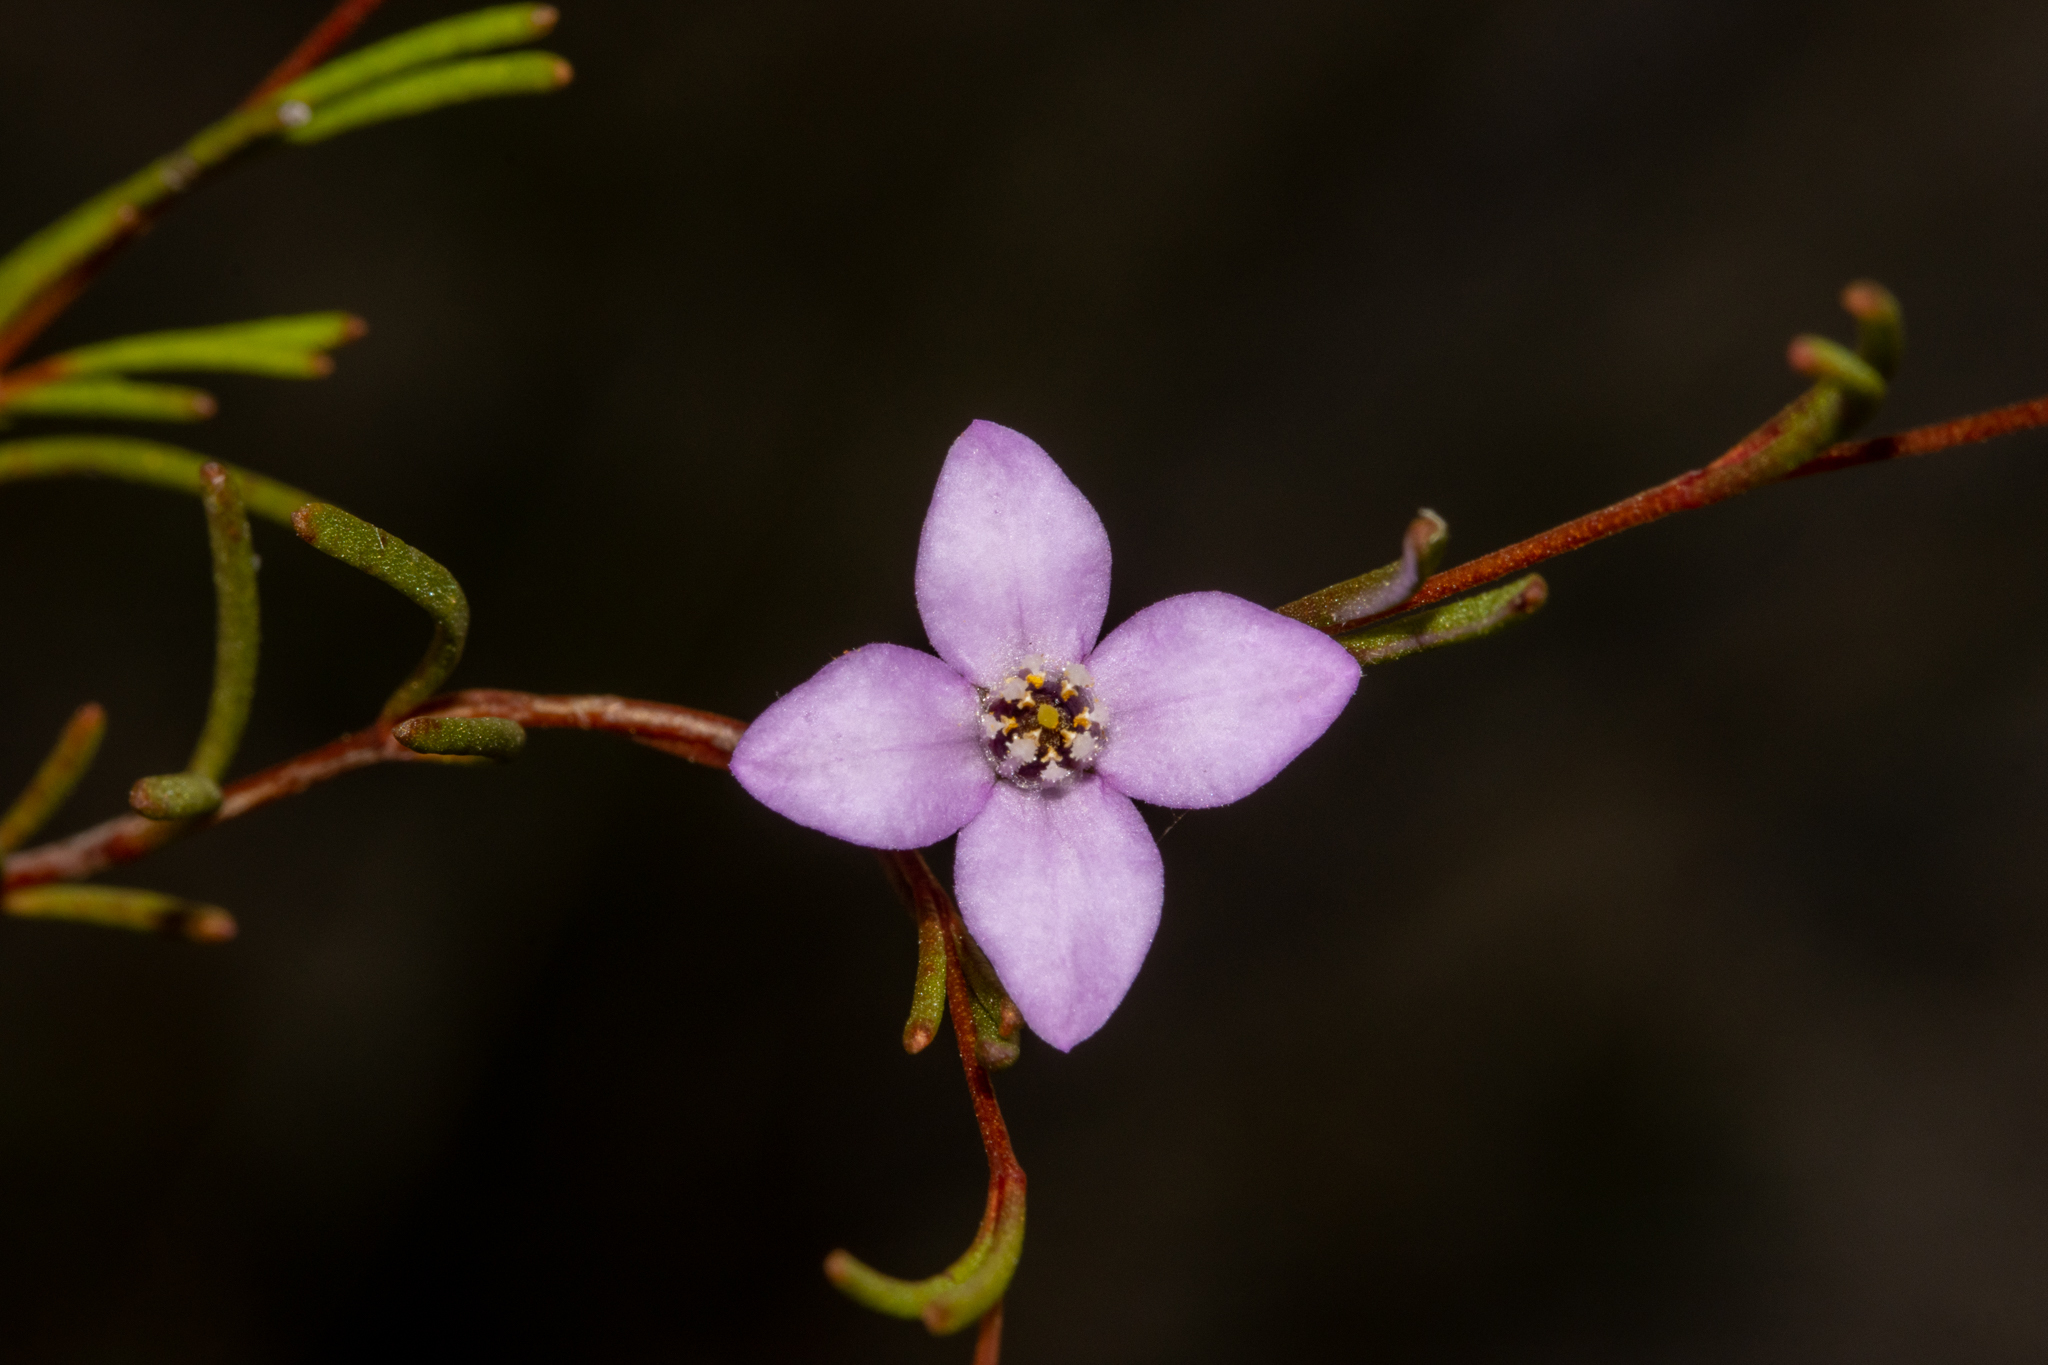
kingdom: Plantae
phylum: Tracheophyta
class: Magnoliopsida
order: Sapindales
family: Rutaceae
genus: Boronia
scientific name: Boronia filifolia
